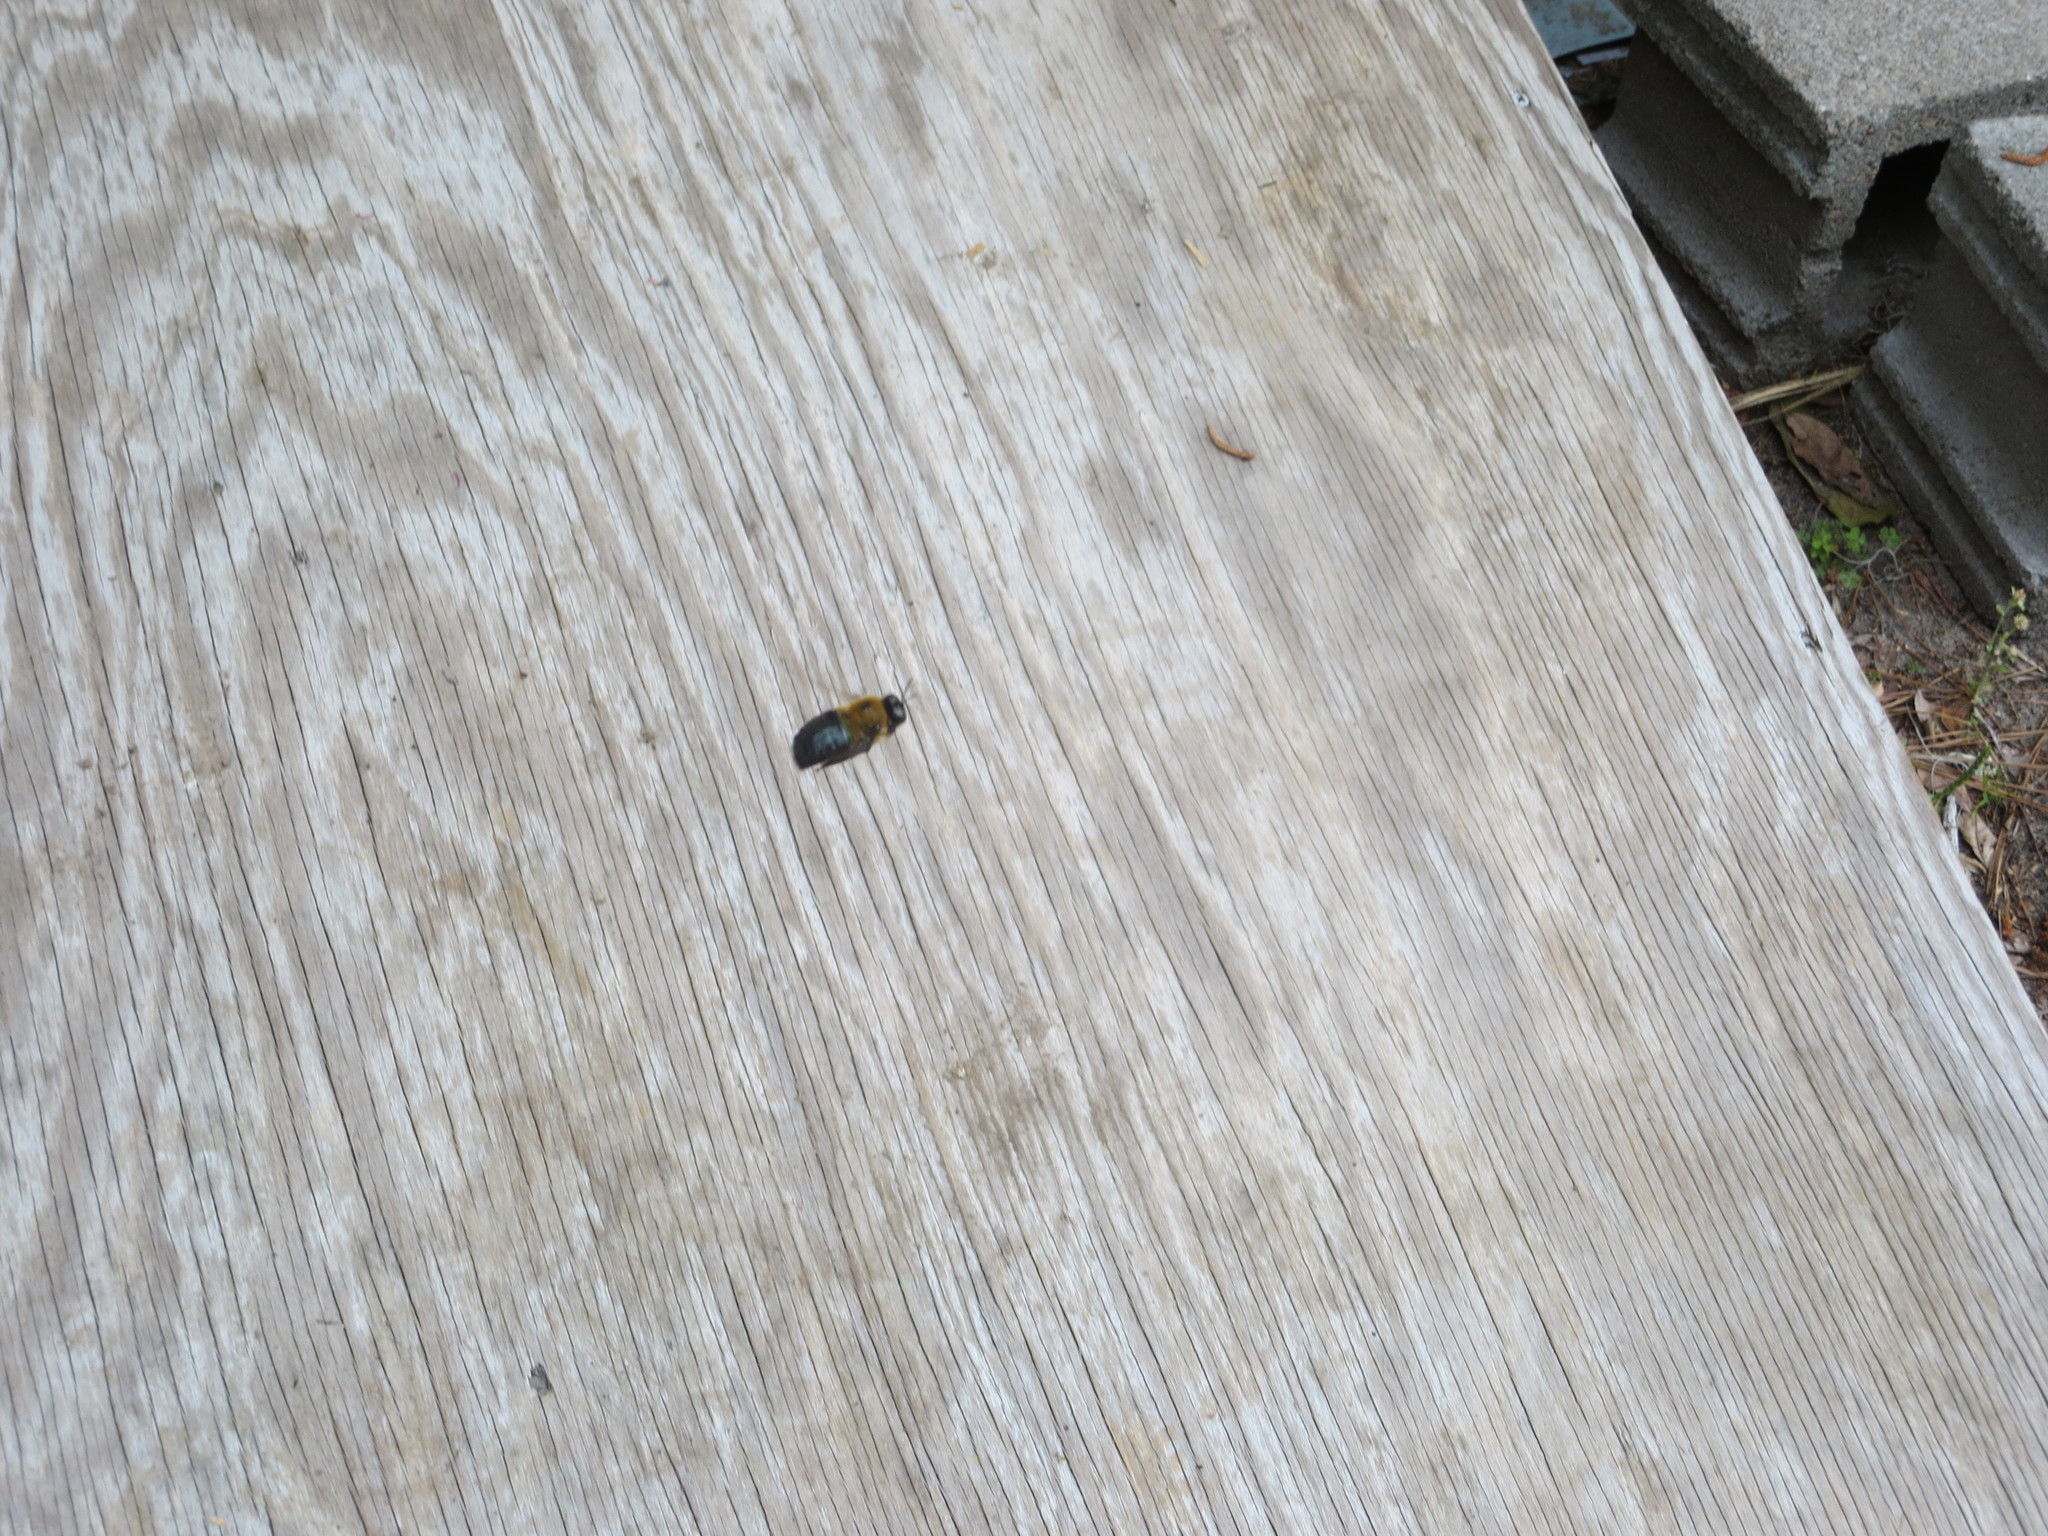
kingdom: Animalia
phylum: Arthropoda
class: Insecta
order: Hymenoptera
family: Apidae
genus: Xylocopa
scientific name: Xylocopa virginica
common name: Carpenter bee
